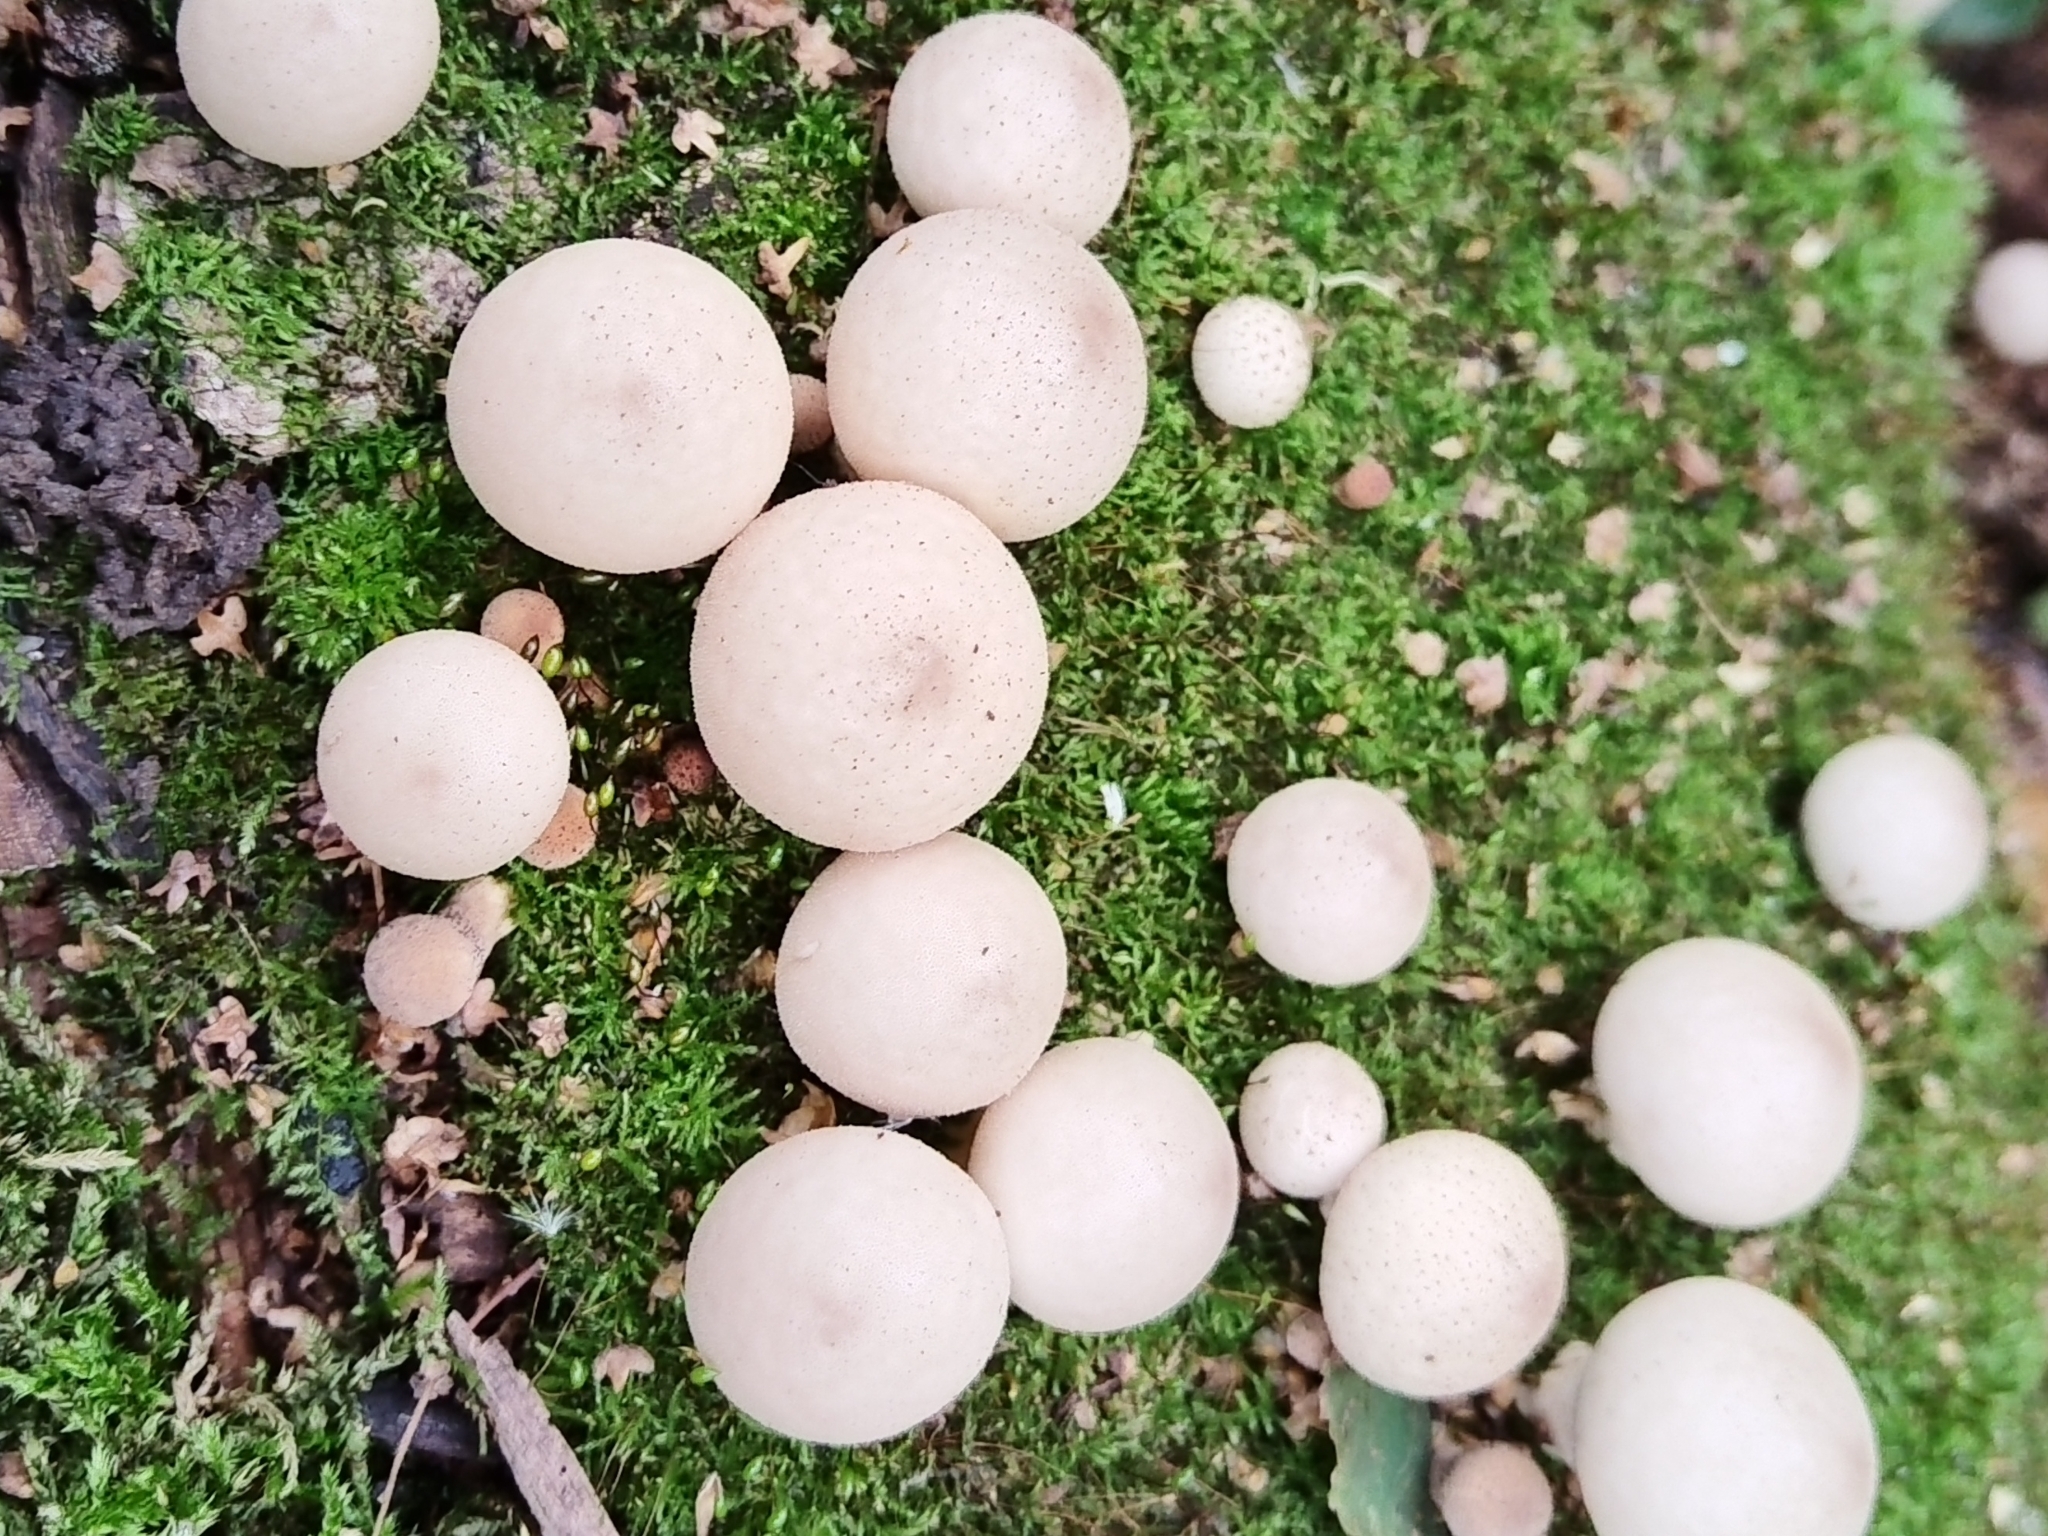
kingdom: Fungi
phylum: Basidiomycota
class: Agaricomycetes
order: Agaricales
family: Lycoperdaceae
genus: Apioperdon
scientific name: Apioperdon pyriforme
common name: Pear-shaped puffball
